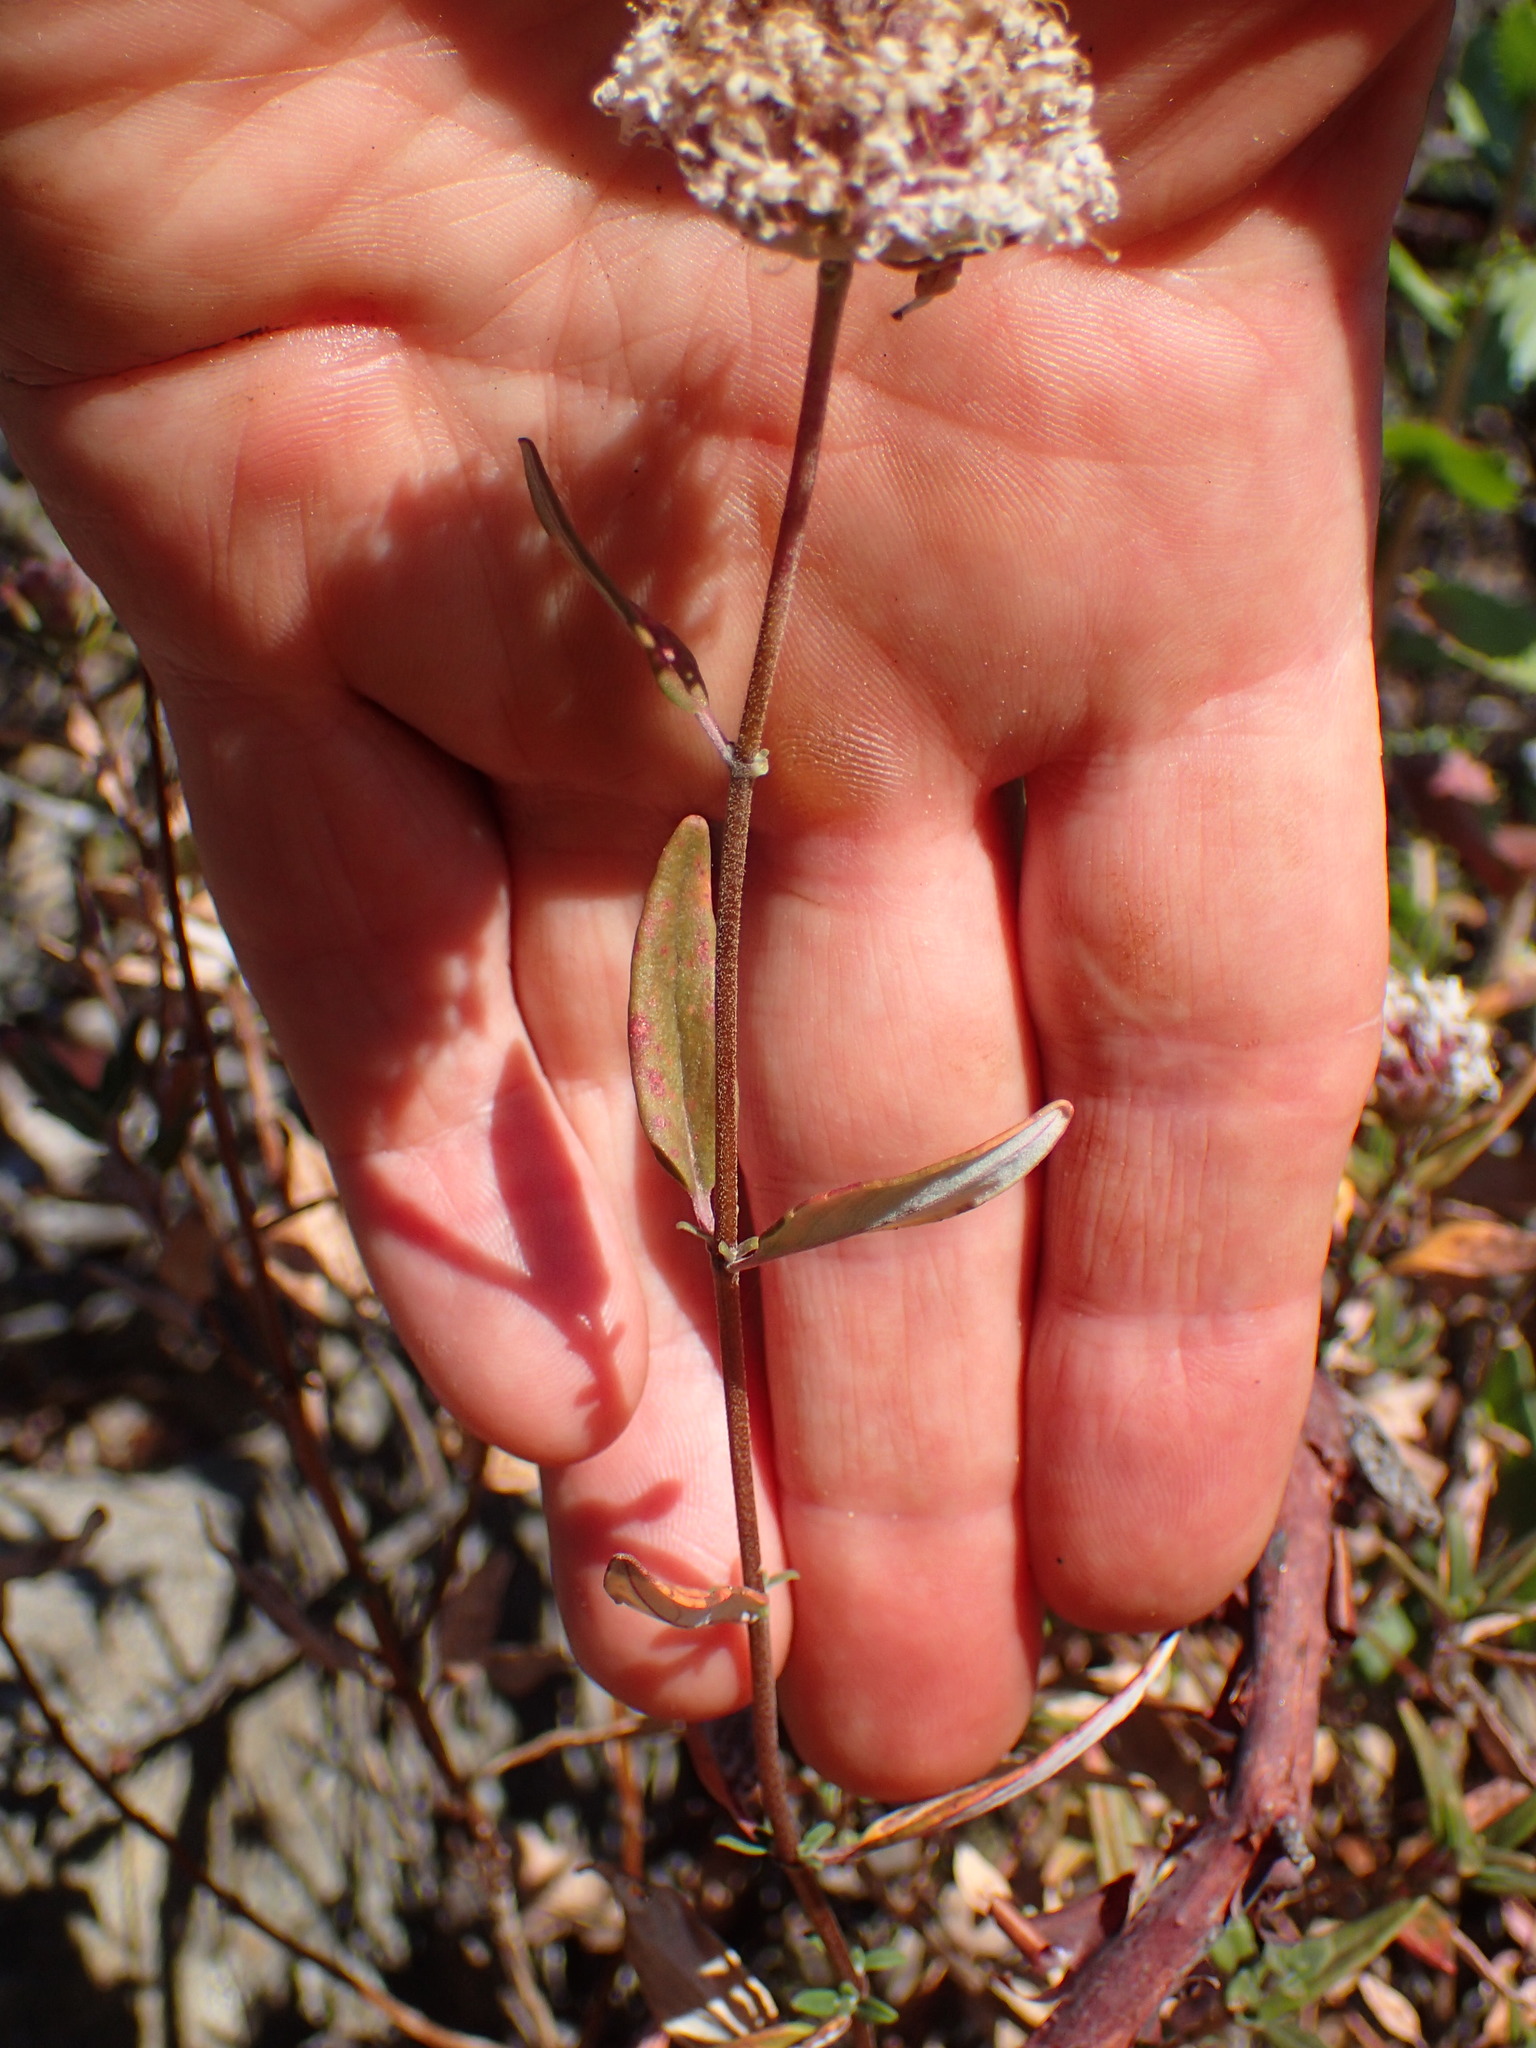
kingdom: Plantae
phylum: Tracheophyta
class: Magnoliopsida
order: Lamiales
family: Lamiaceae
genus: Monardella
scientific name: Monardella hypoleuca
